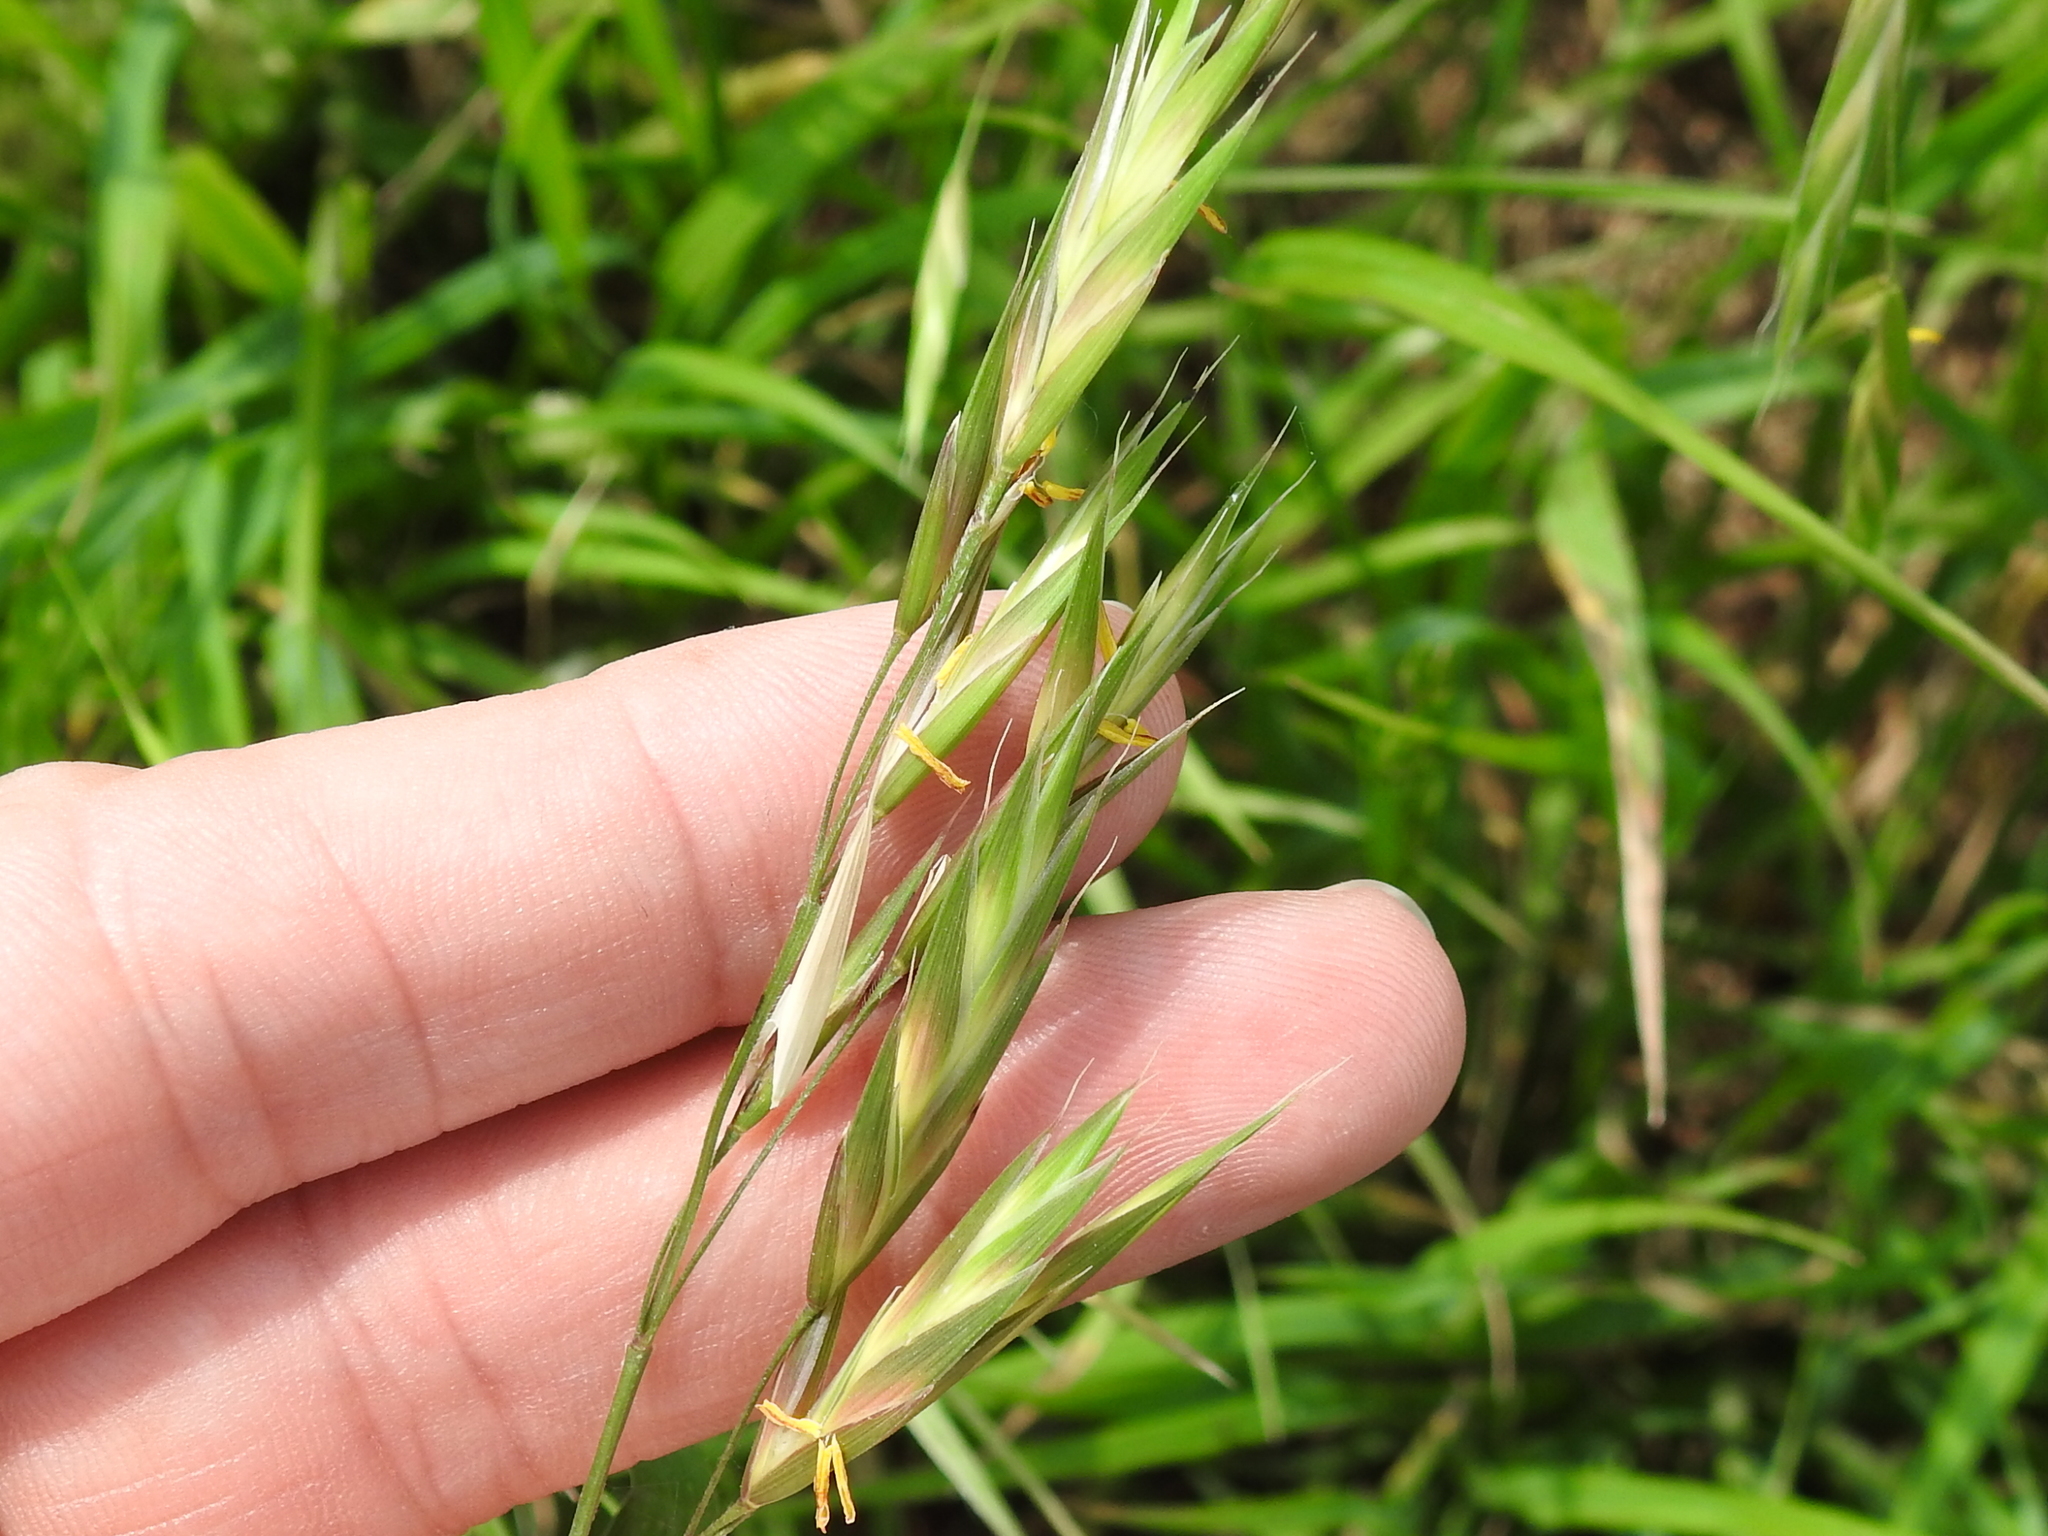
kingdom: Plantae
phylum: Tracheophyta
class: Liliopsida
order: Poales
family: Poaceae
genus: Bromus
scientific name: Bromus catharticus
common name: Rescuegrass
